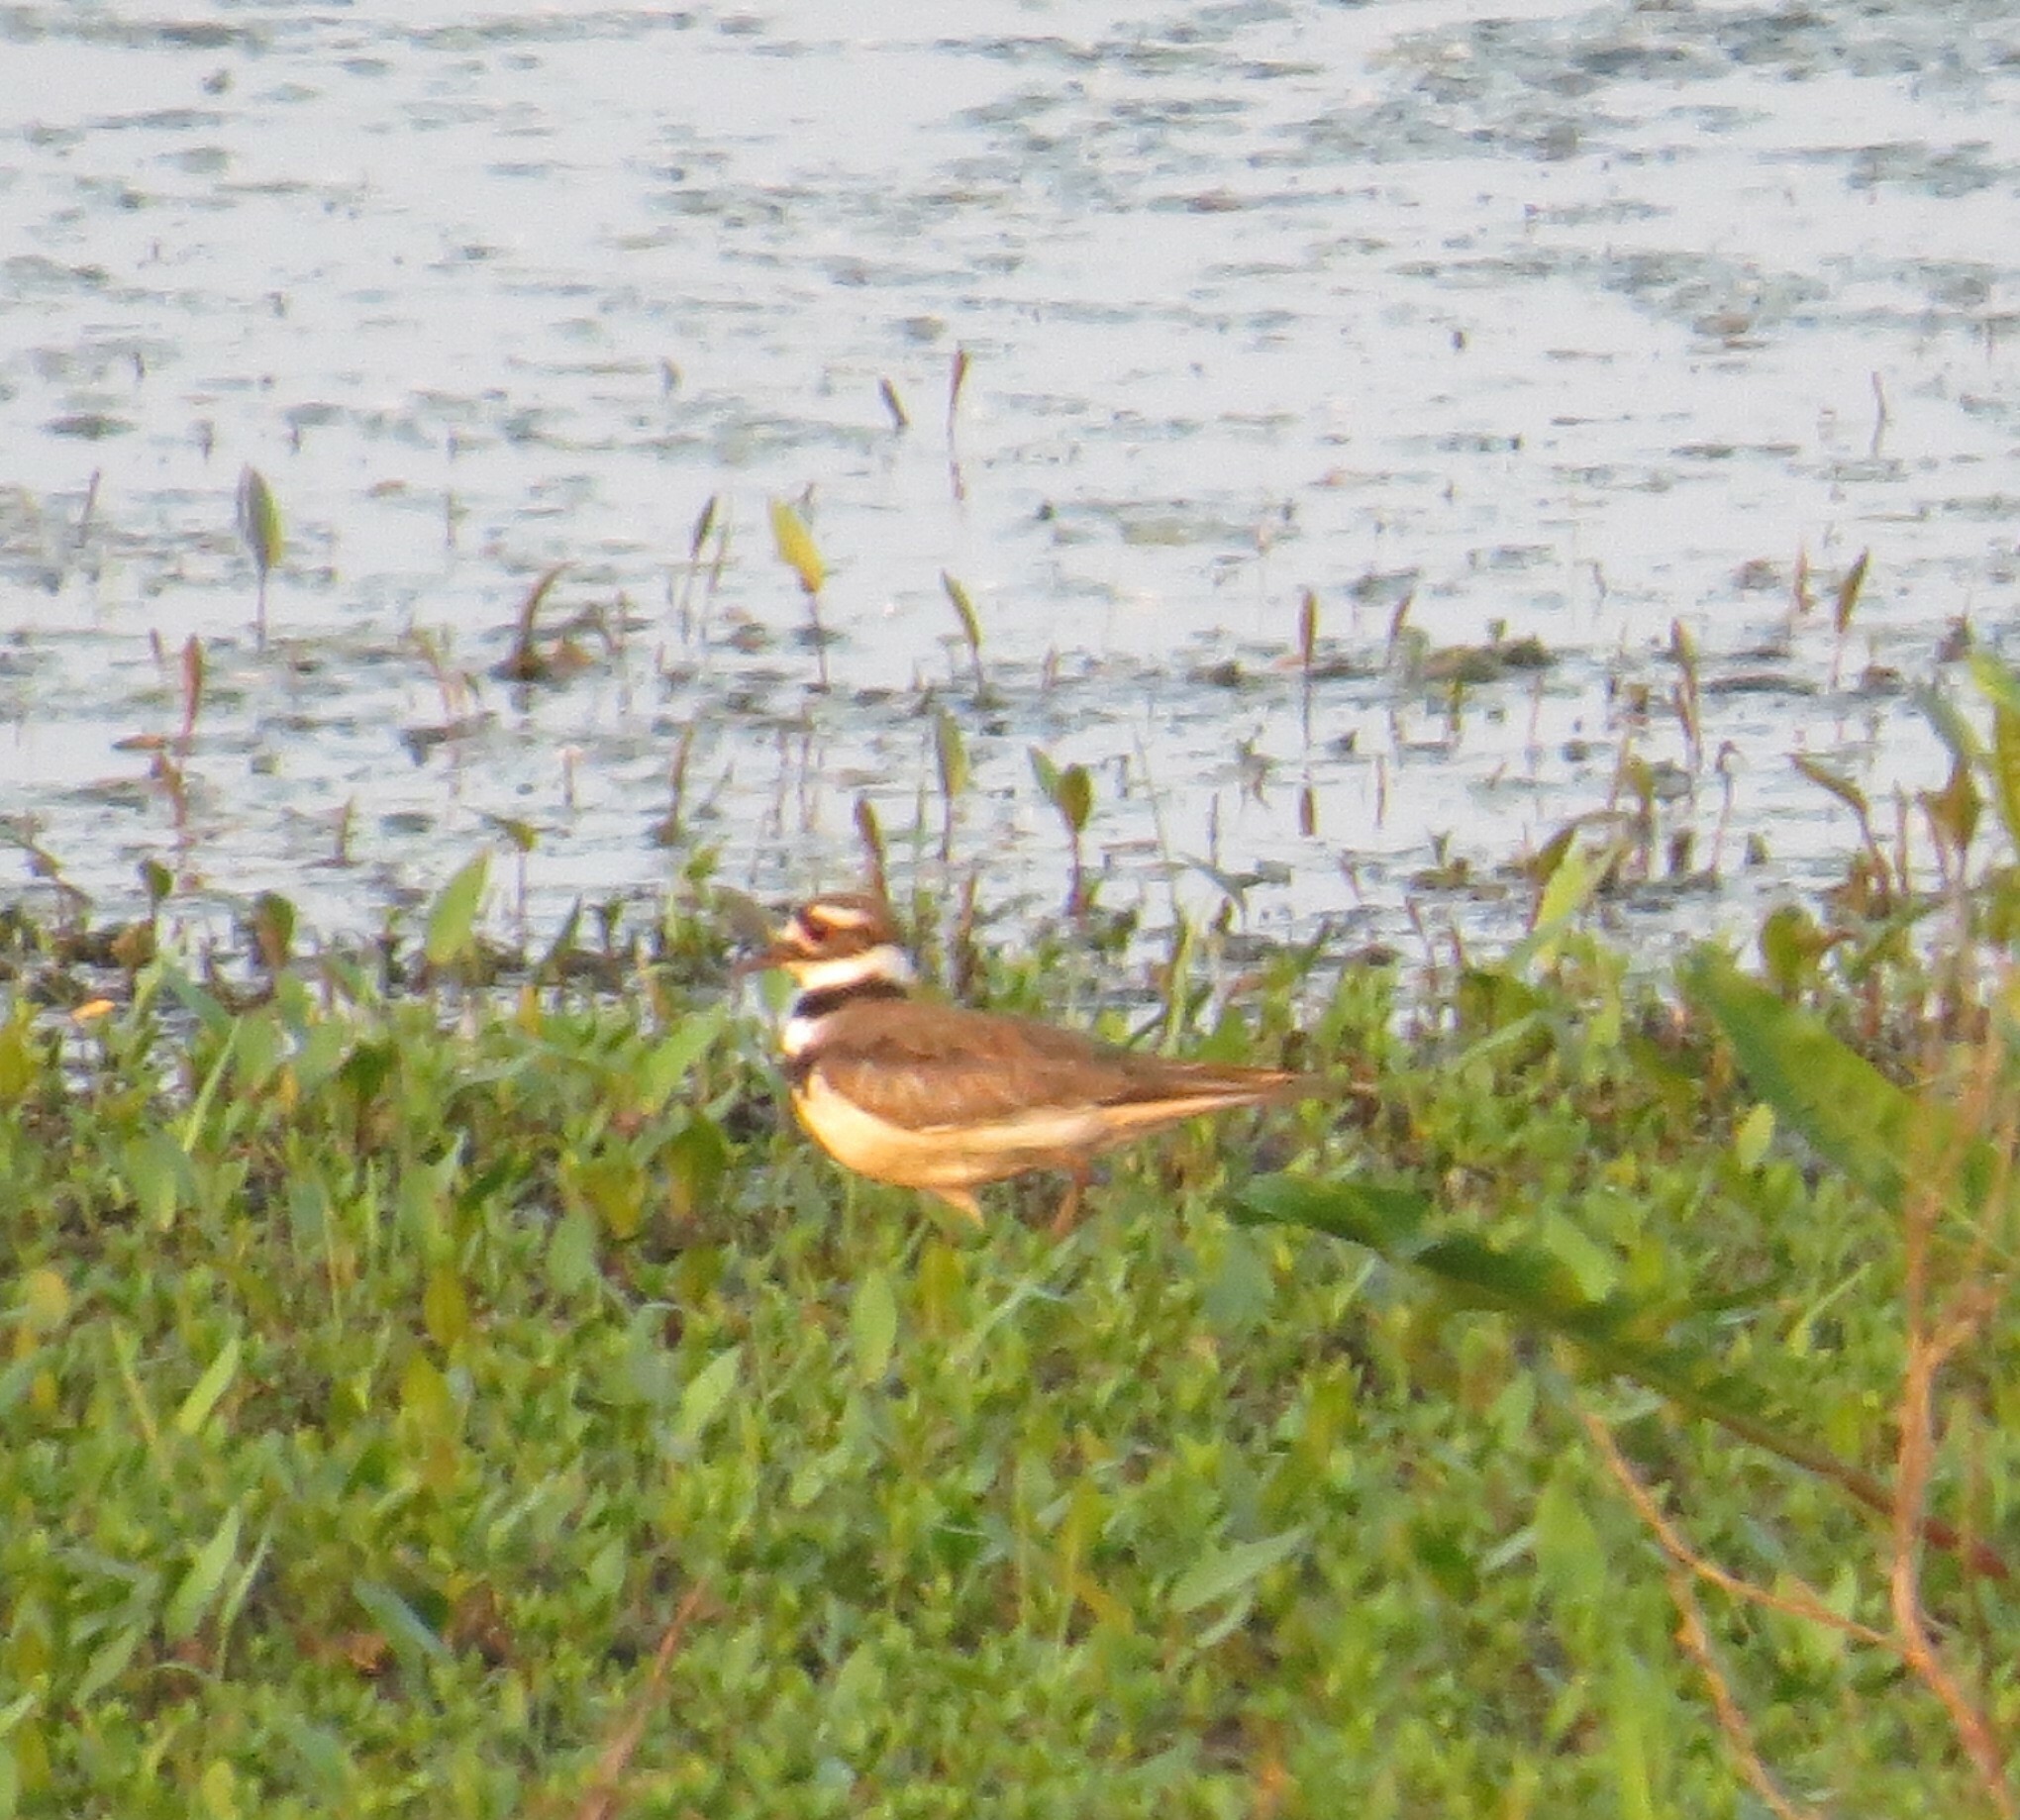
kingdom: Animalia
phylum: Chordata
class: Aves
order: Charadriiformes
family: Charadriidae
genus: Charadrius
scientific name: Charadrius vociferus
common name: Killdeer
